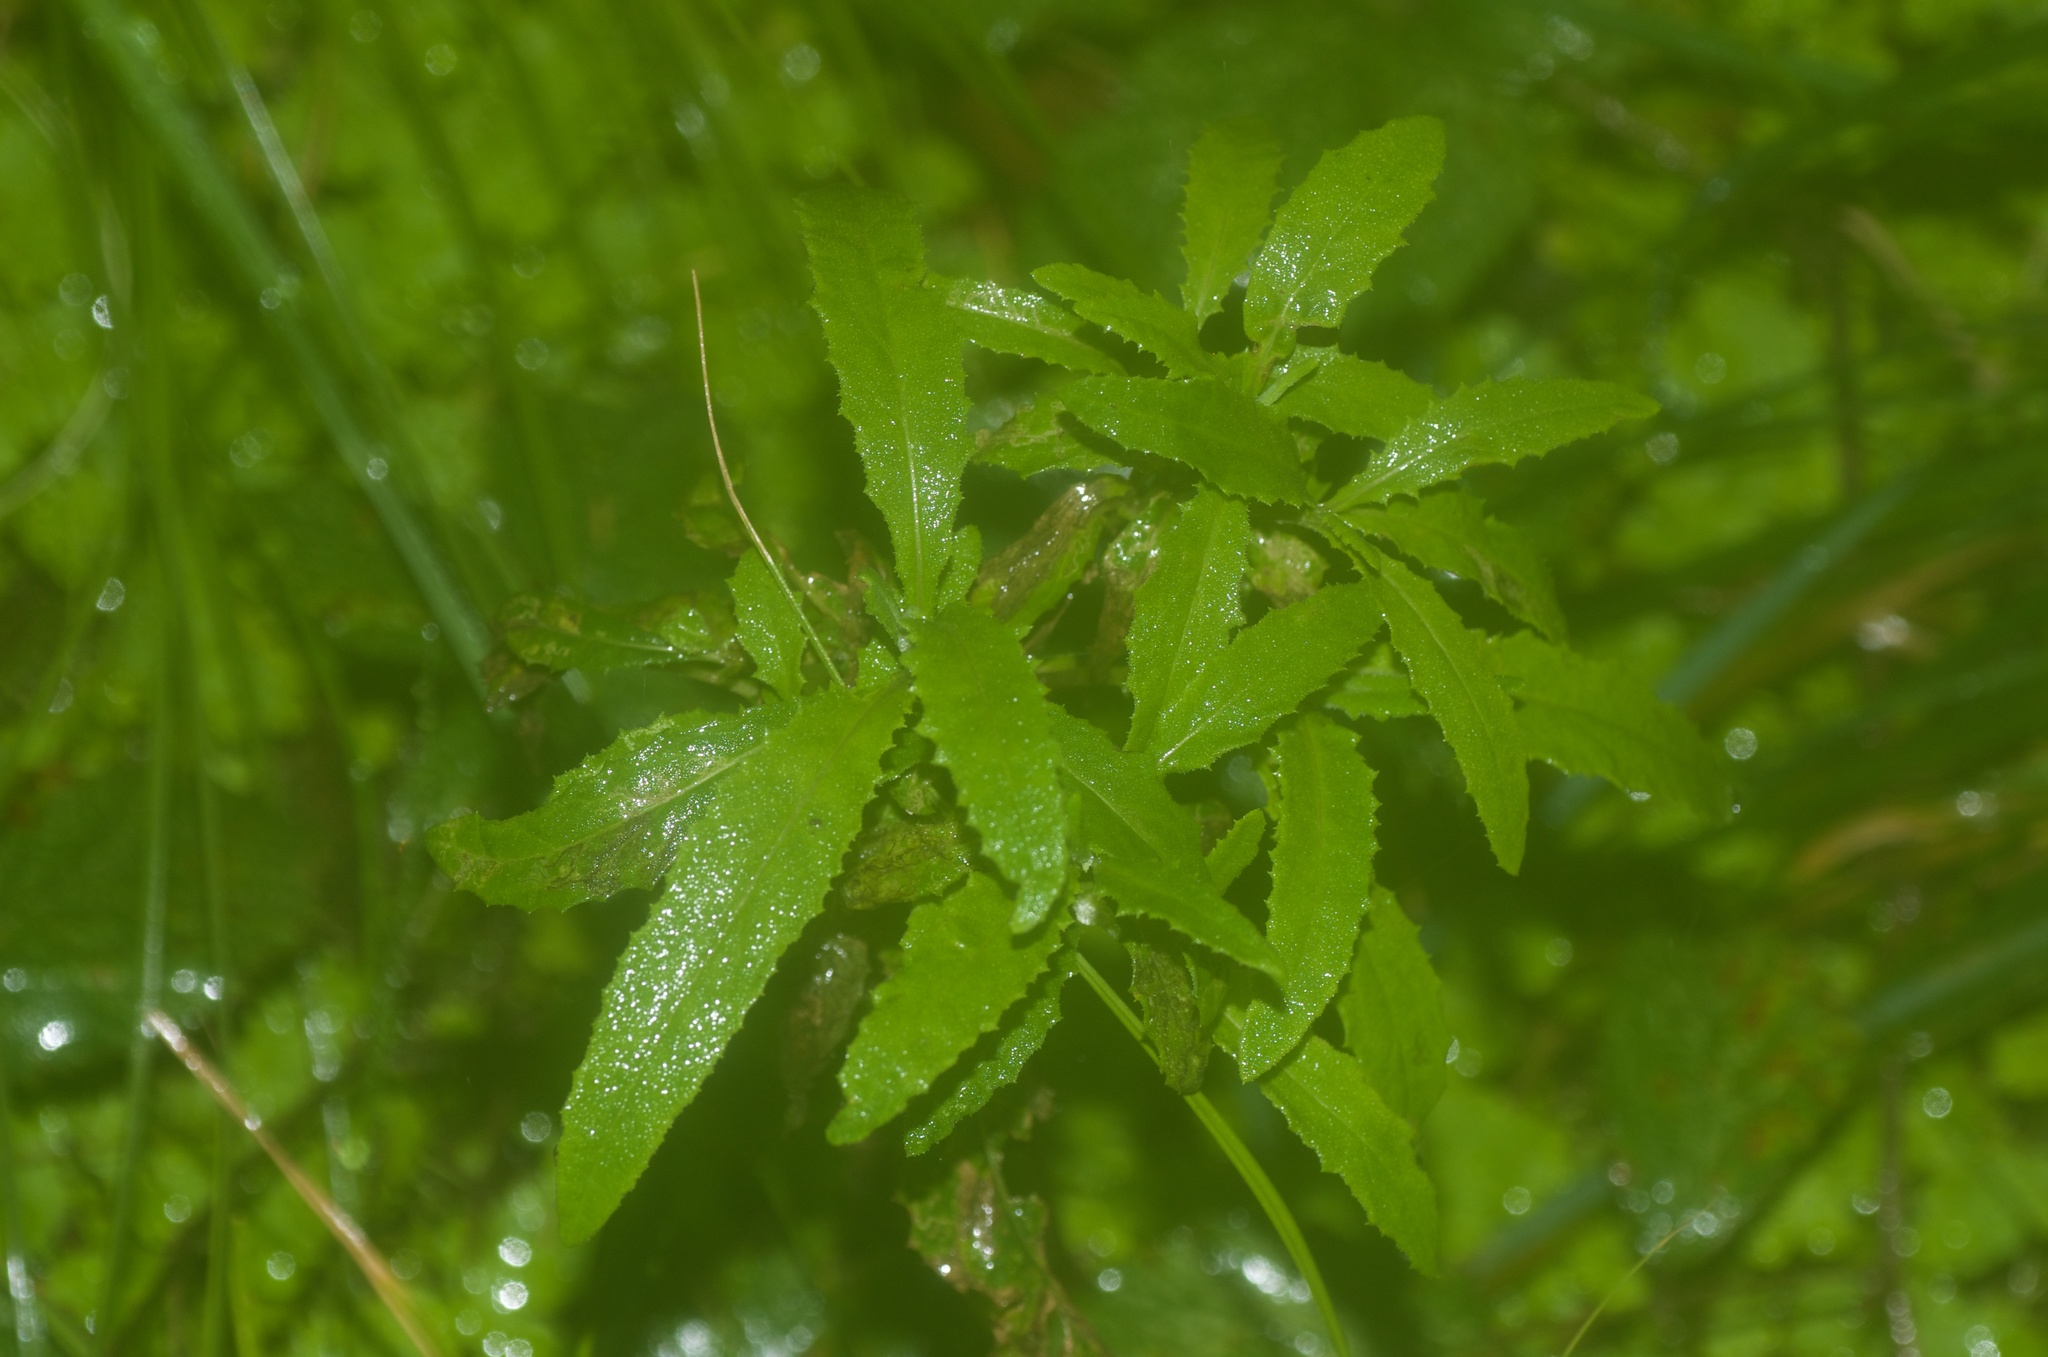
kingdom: Plantae
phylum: Tracheophyta
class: Magnoliopsida
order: Asterales
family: Asteraceae
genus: Senecio
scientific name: Senecio minimus
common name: Toothed fireweed
